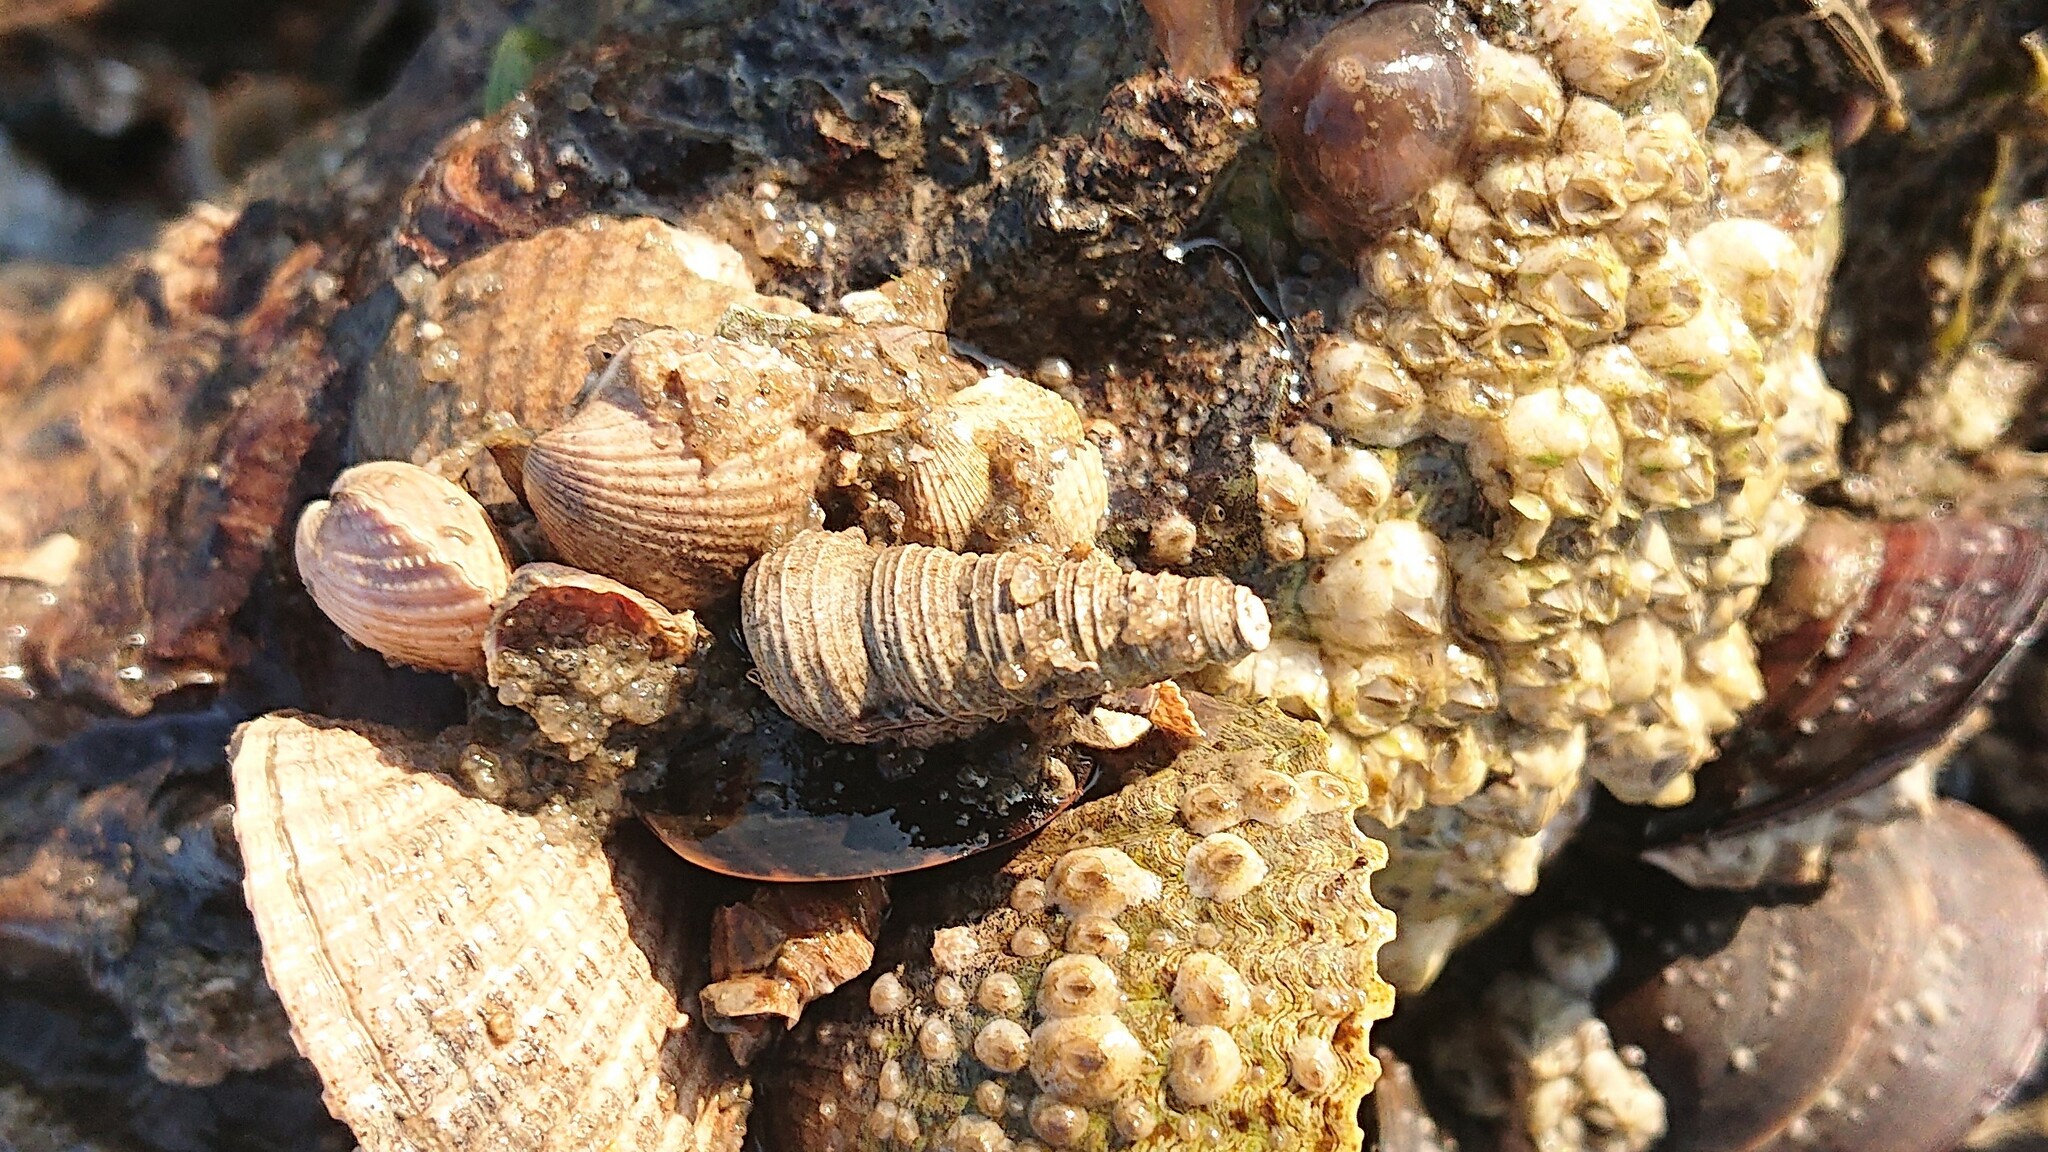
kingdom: Animalia
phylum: Mollusca
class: Gastropoda
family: Turritellidae
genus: Turritellinella
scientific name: Turritellinella tricarinata
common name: Auger shell
